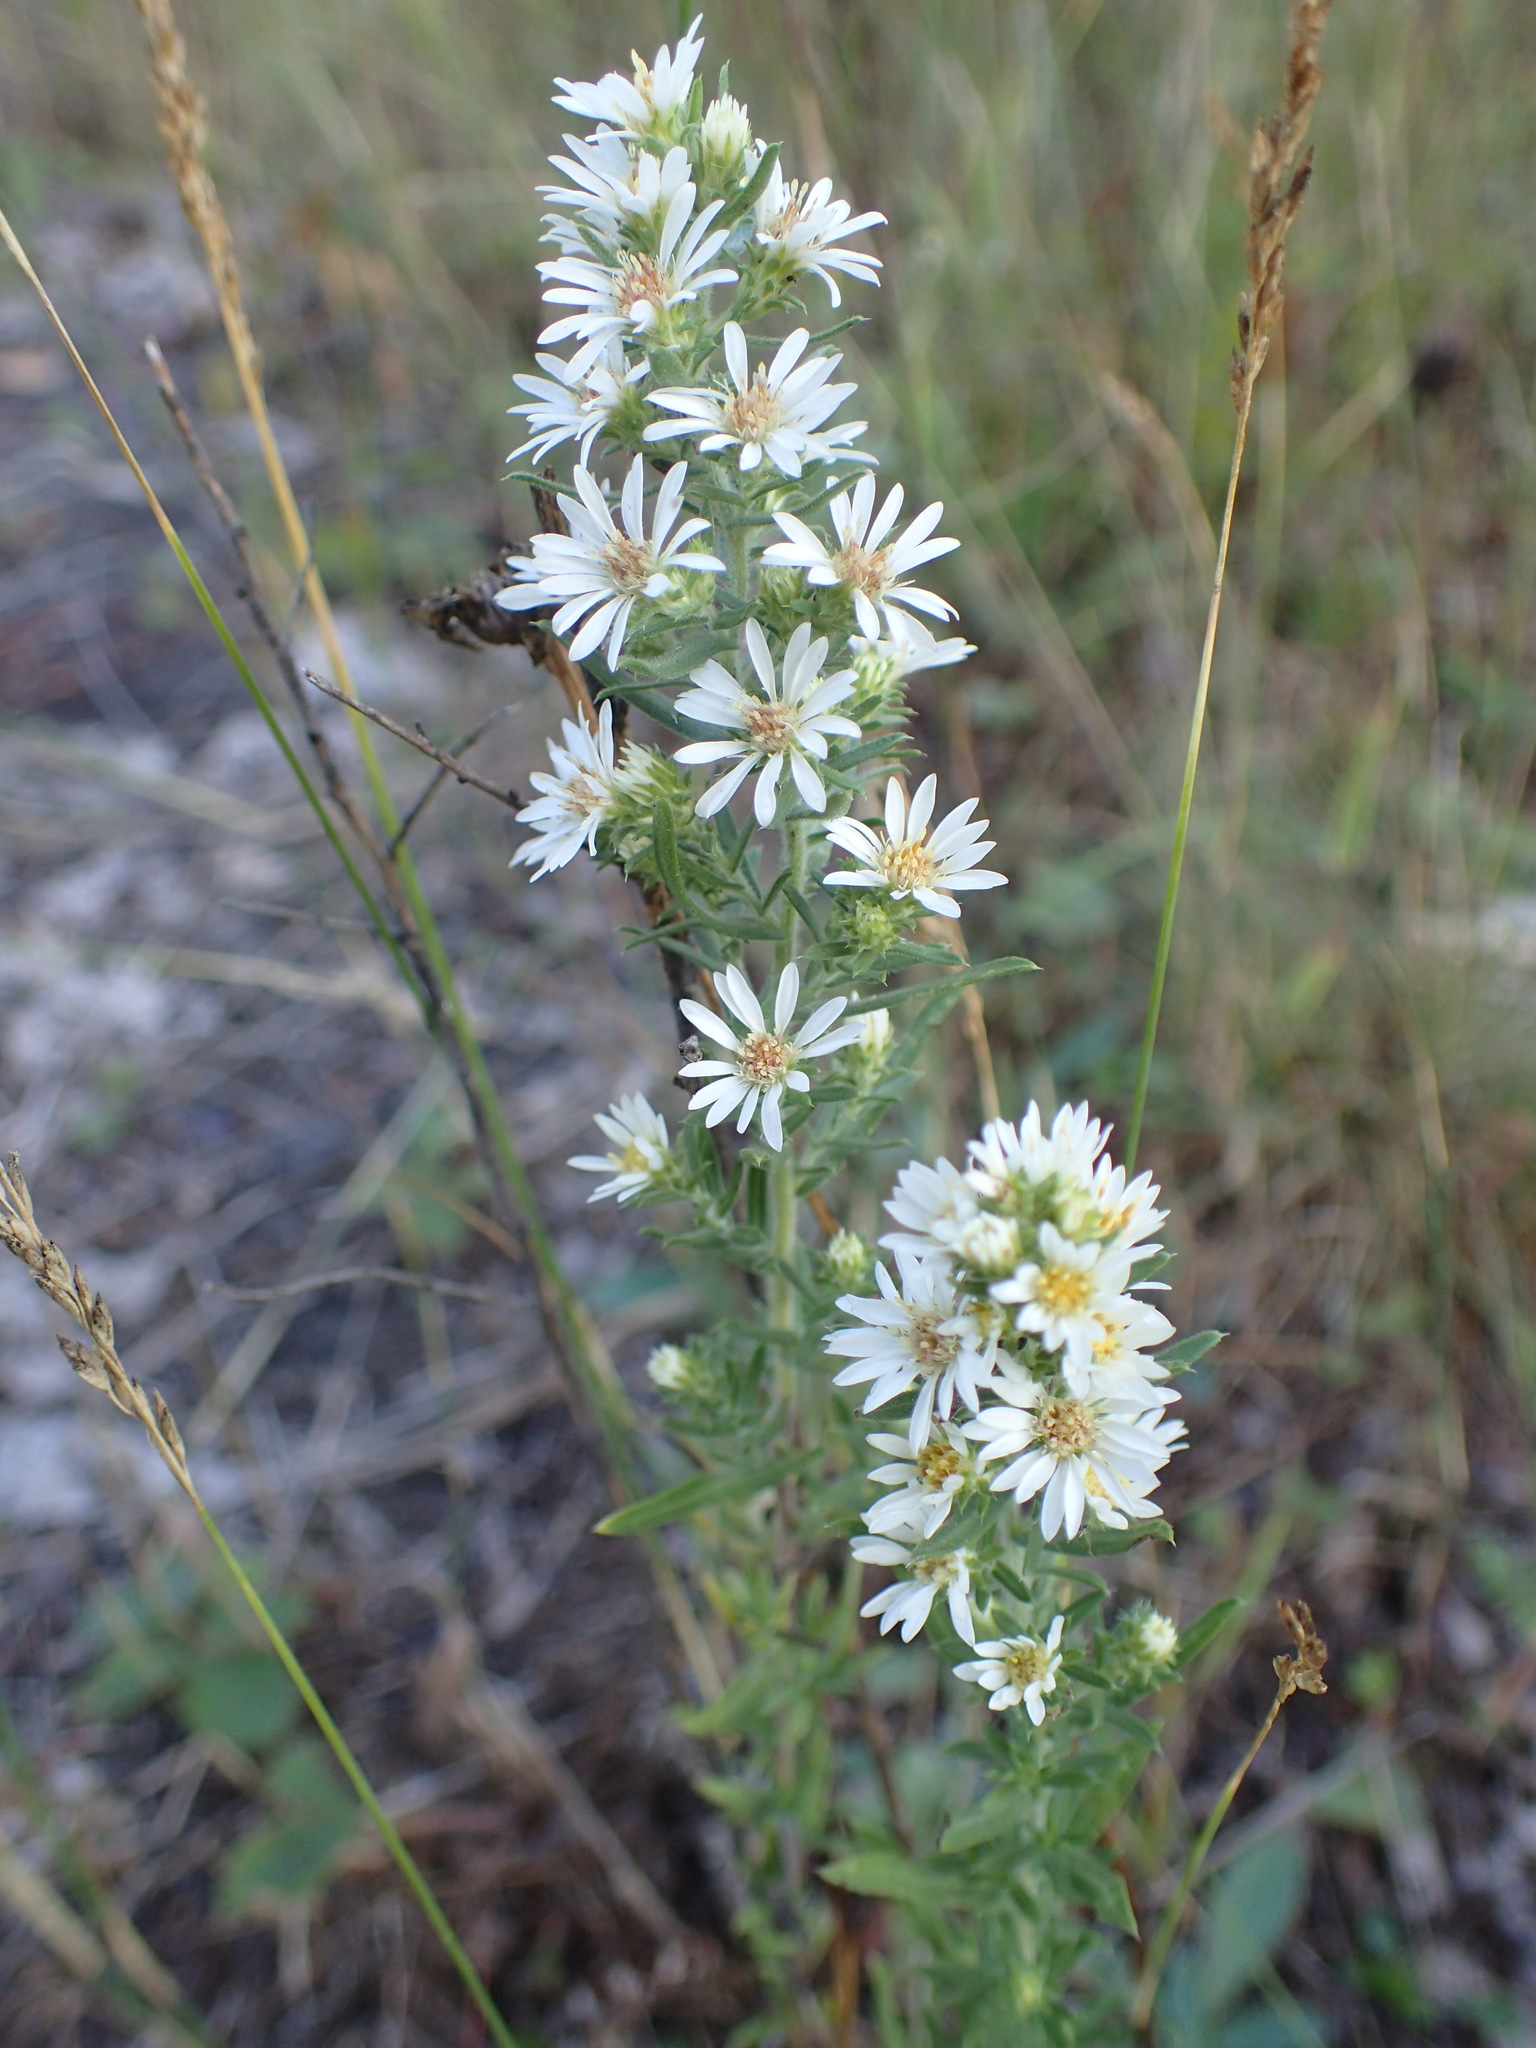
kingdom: Plantae
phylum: Tracheophyta
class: Magnoliopsida
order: Asterales
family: Asteraceae
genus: Symphyotrichum
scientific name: Symphyotrichum ericoides
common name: Heath aster
